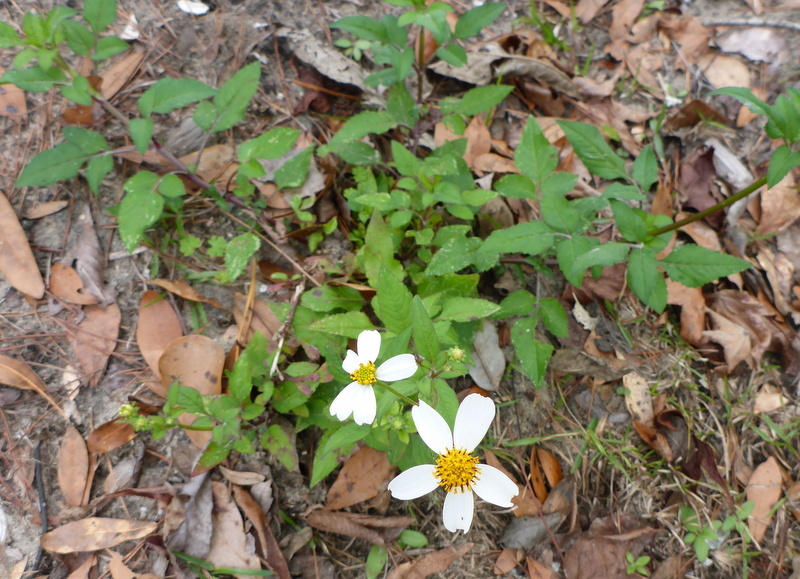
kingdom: Plantae
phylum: Tracheophyta
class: Magnoliopsida
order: Asterales
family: Asteraceae
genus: Bidens
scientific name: Bidens alba
